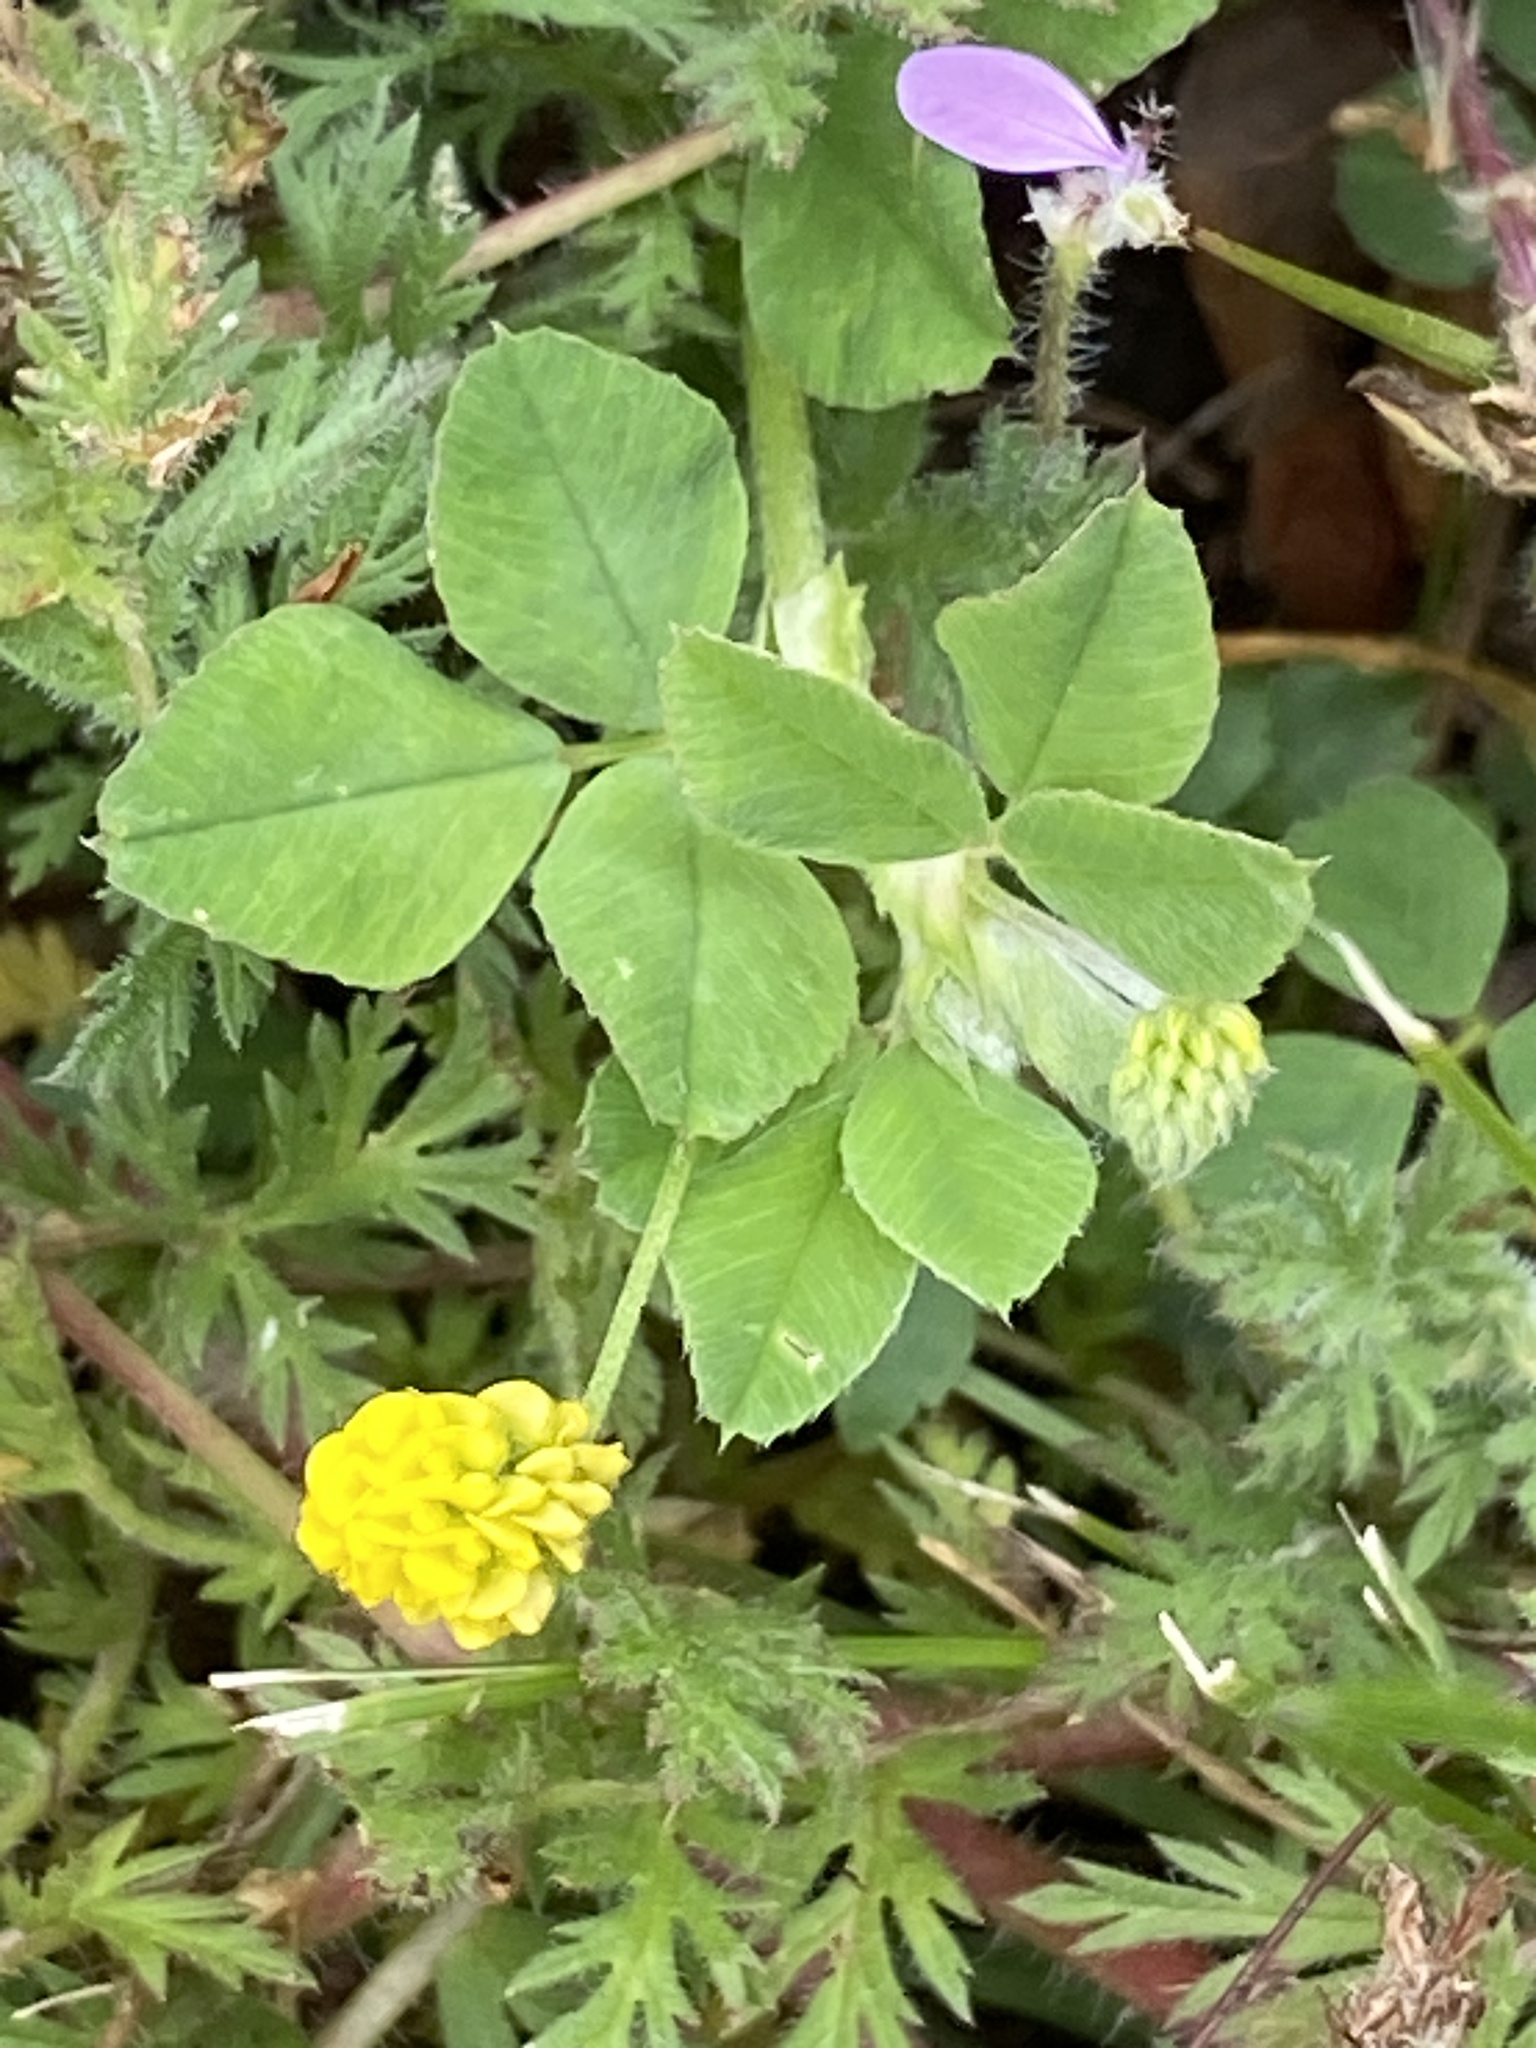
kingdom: Plantae
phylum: Tracheophyta
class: Magnoliopsida
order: Fabales
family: Fabaceae
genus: Medicago
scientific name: Medicago lupulina
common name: Black medick
